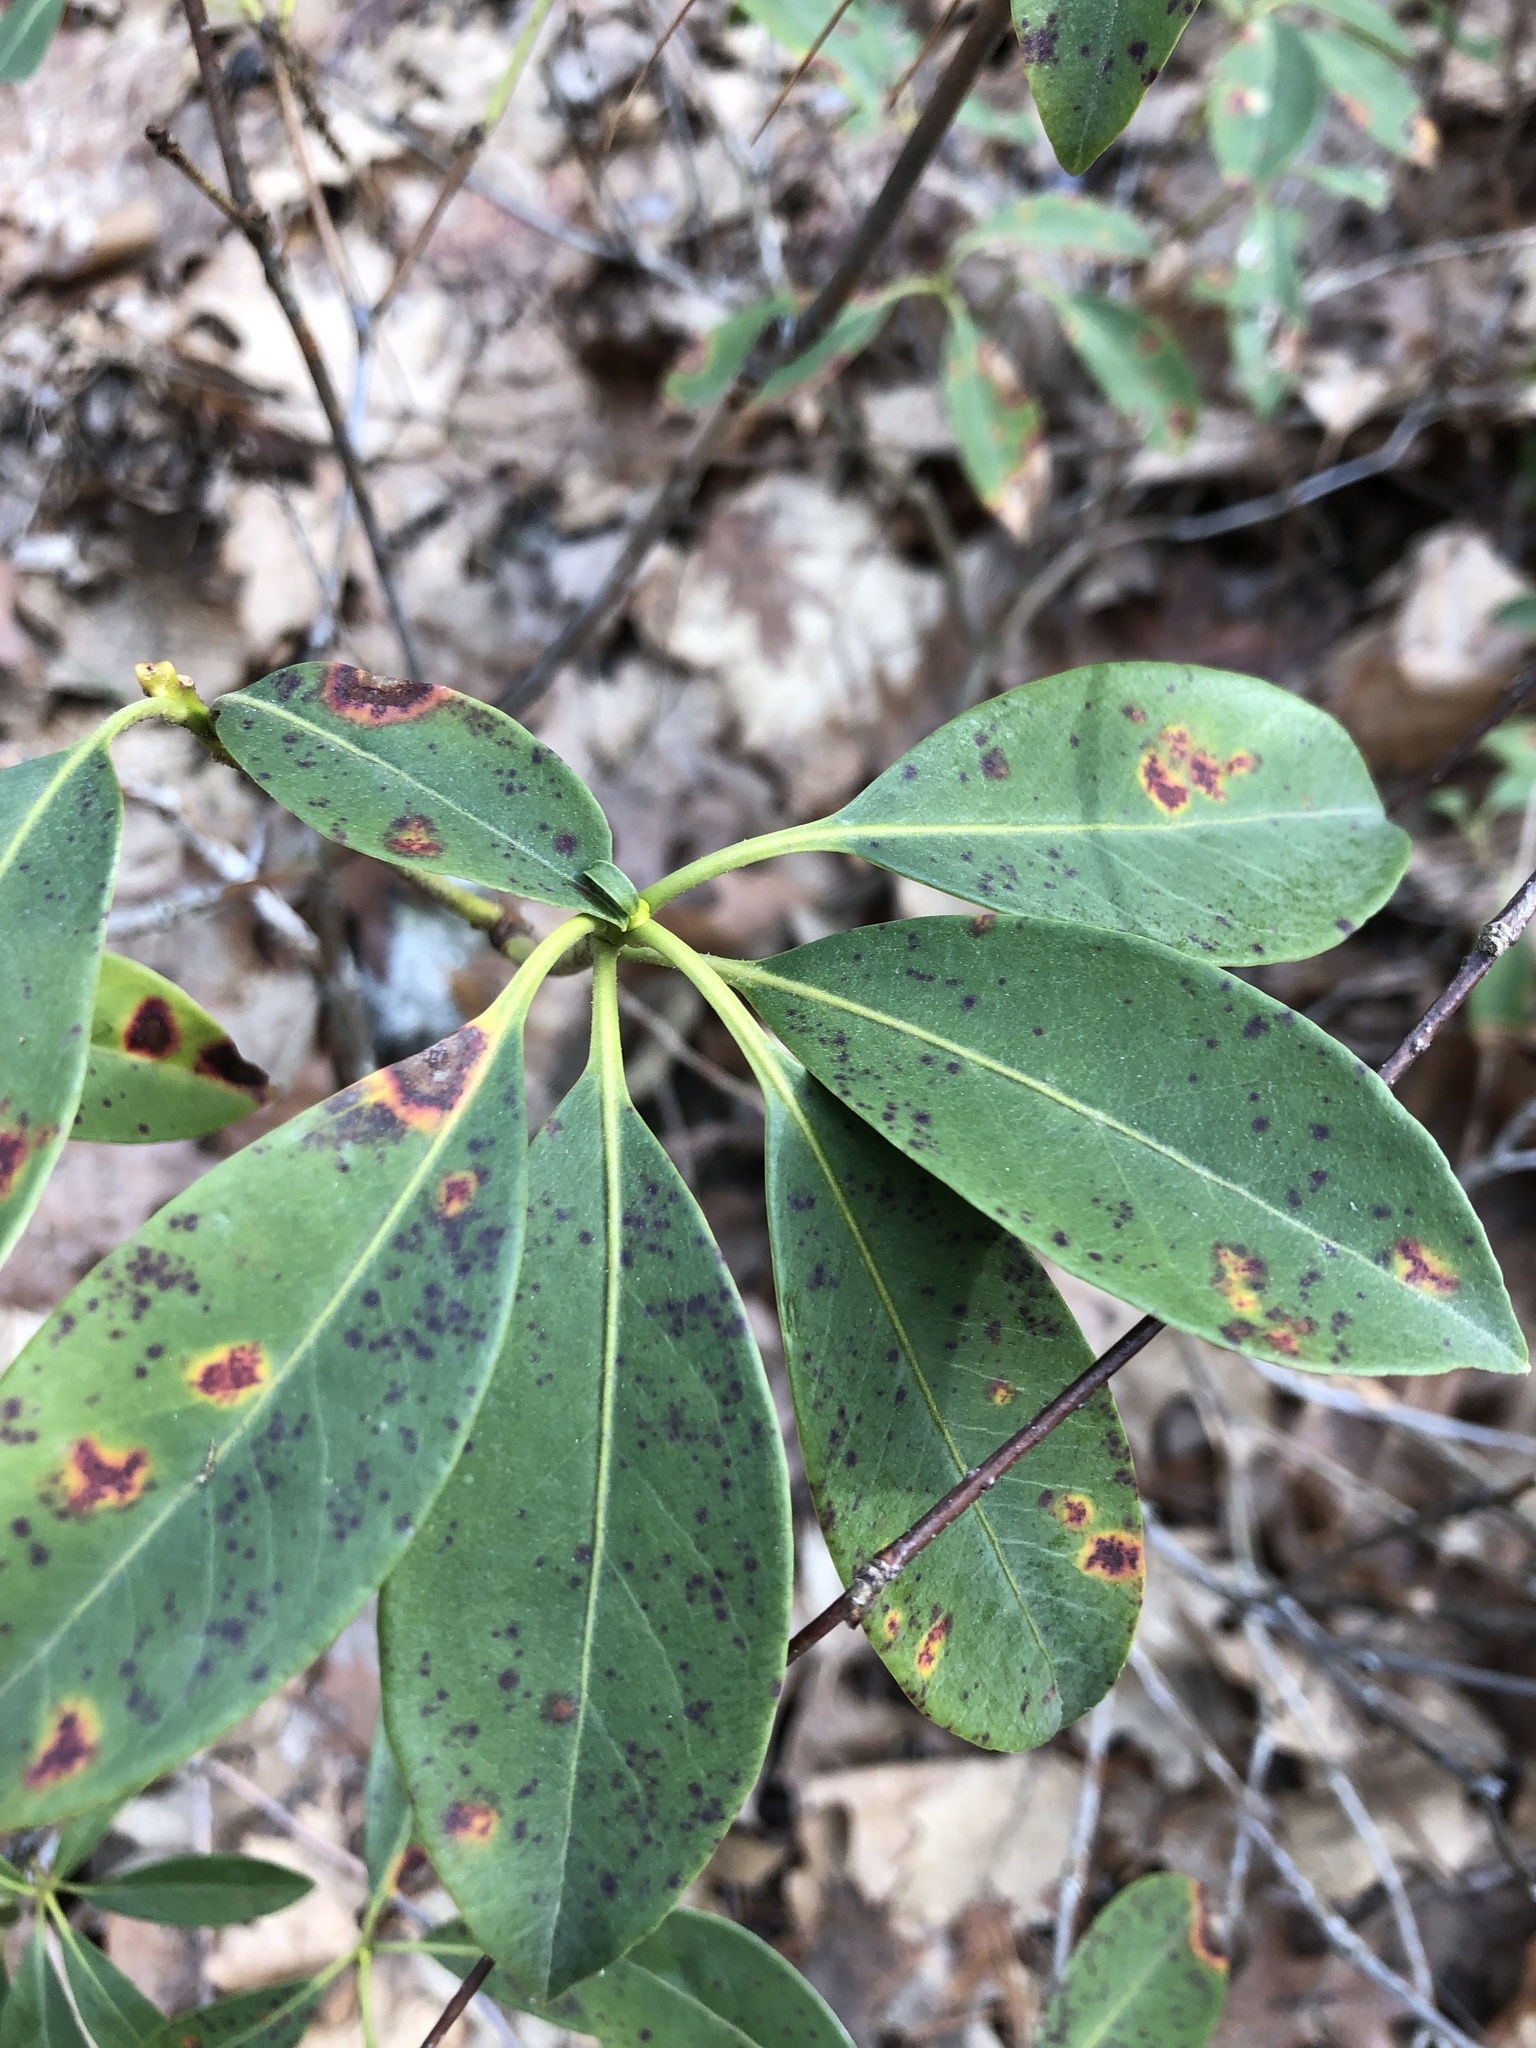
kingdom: Plantae
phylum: Tracheophyta
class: Magnoliopsida
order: Ericales
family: Ericaceae
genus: Kalmia
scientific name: Kalmia latifolia
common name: Mountain-laurel
